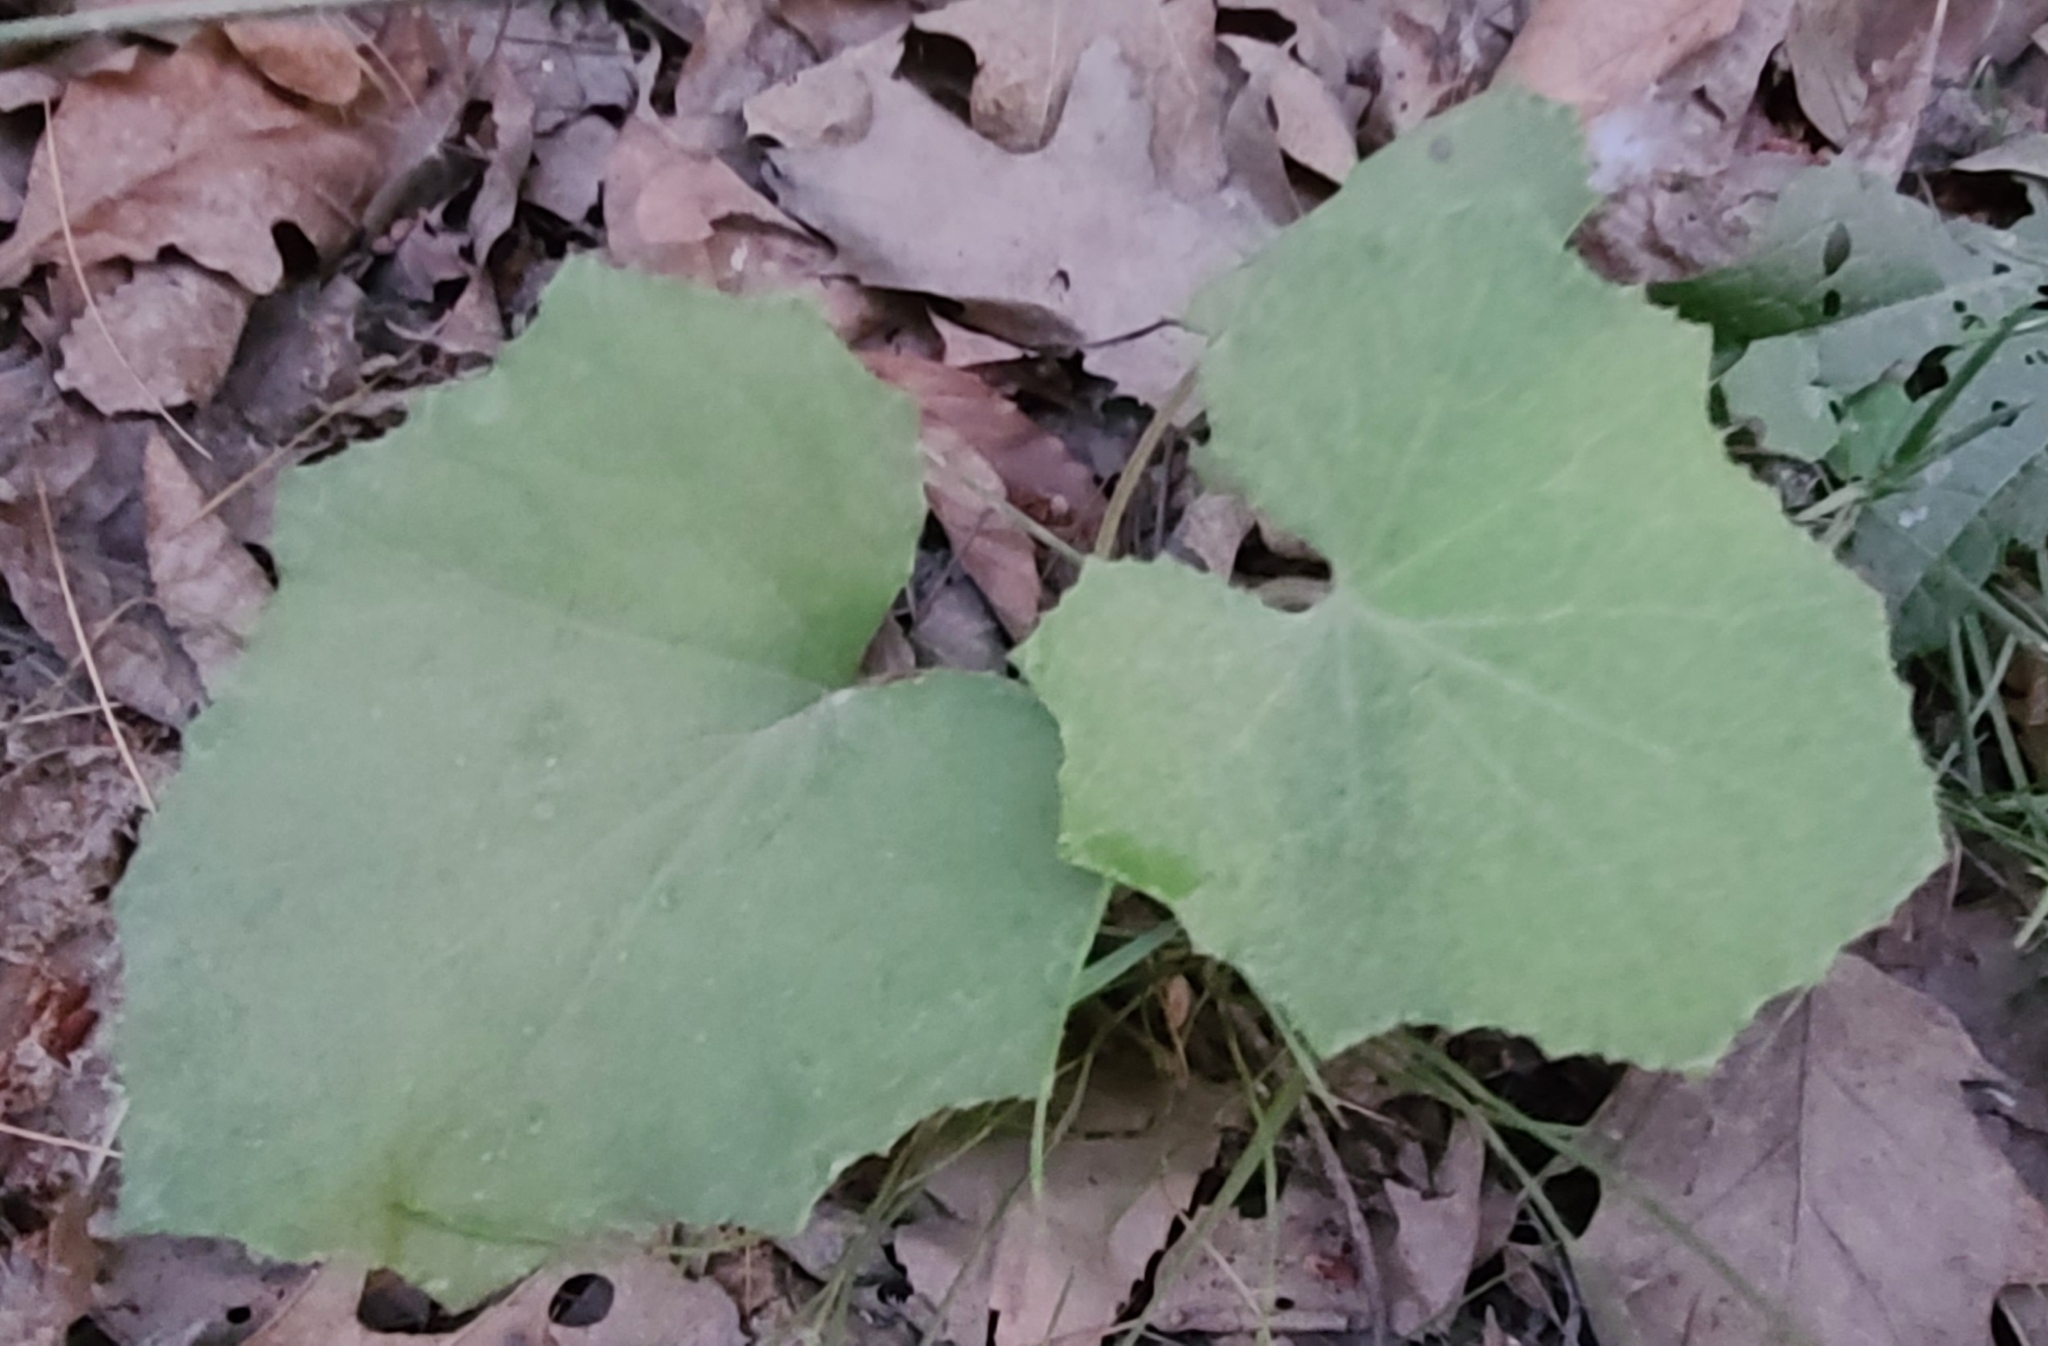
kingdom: Plantae
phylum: Tracheophyta
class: Magnoliopsida
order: Asterales
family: Asteraceae
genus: Tussilago
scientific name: Tussilago farfara
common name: Coltsfoot
